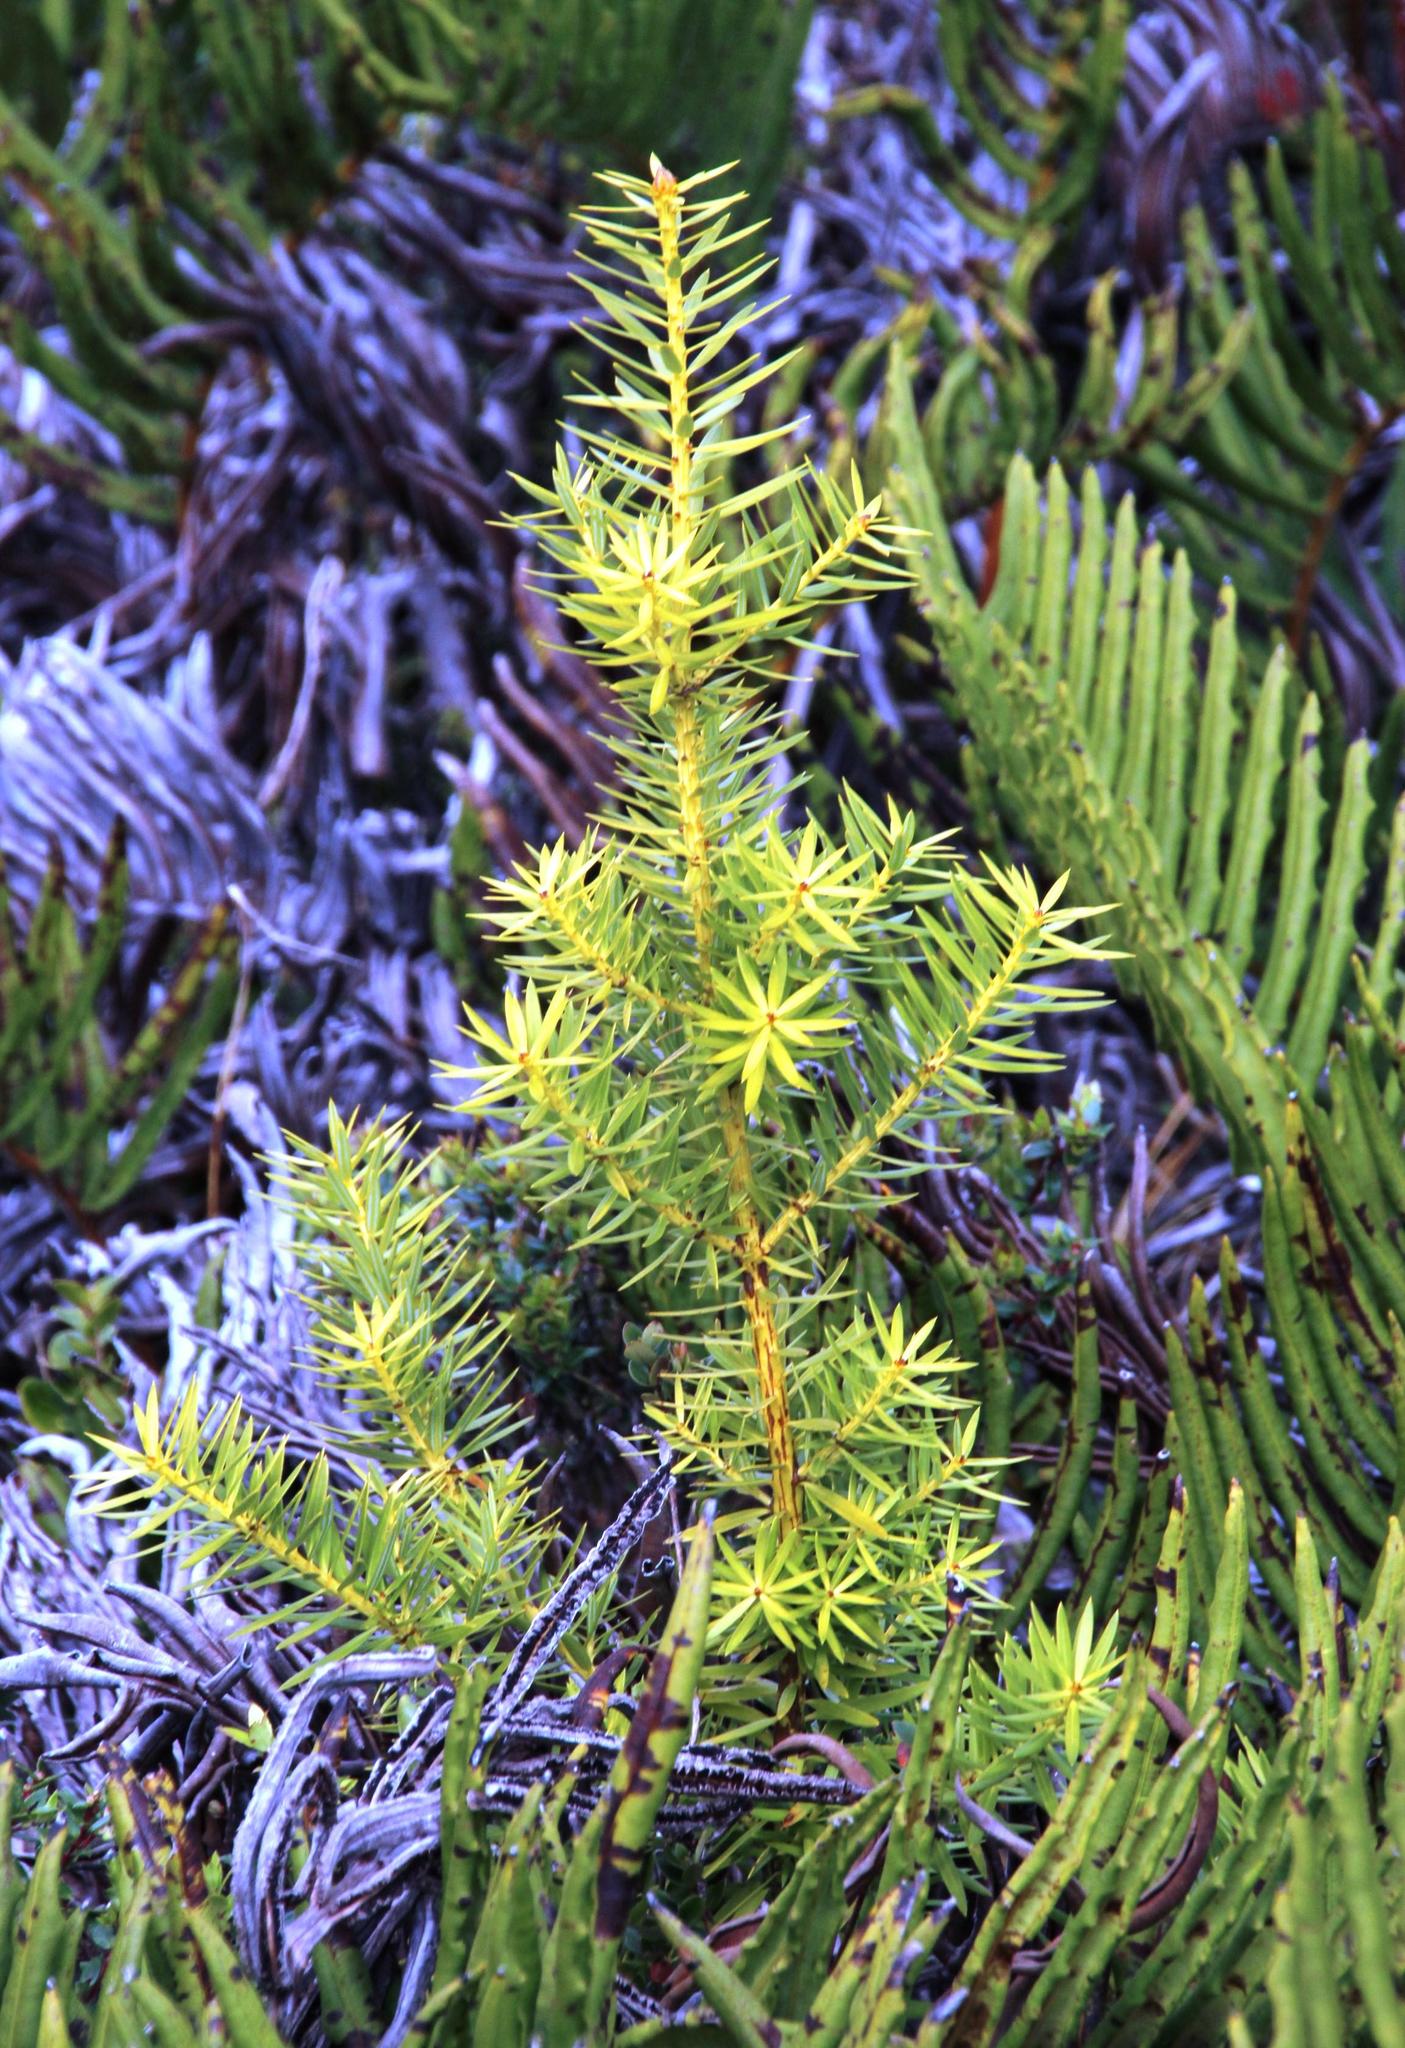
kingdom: Plantae
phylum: Tracheophyta
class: Pinopsida
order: Pinales
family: Podocarpaceae
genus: Podocarpus
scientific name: Podocarpus nubigenus
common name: Cloud podocarp
